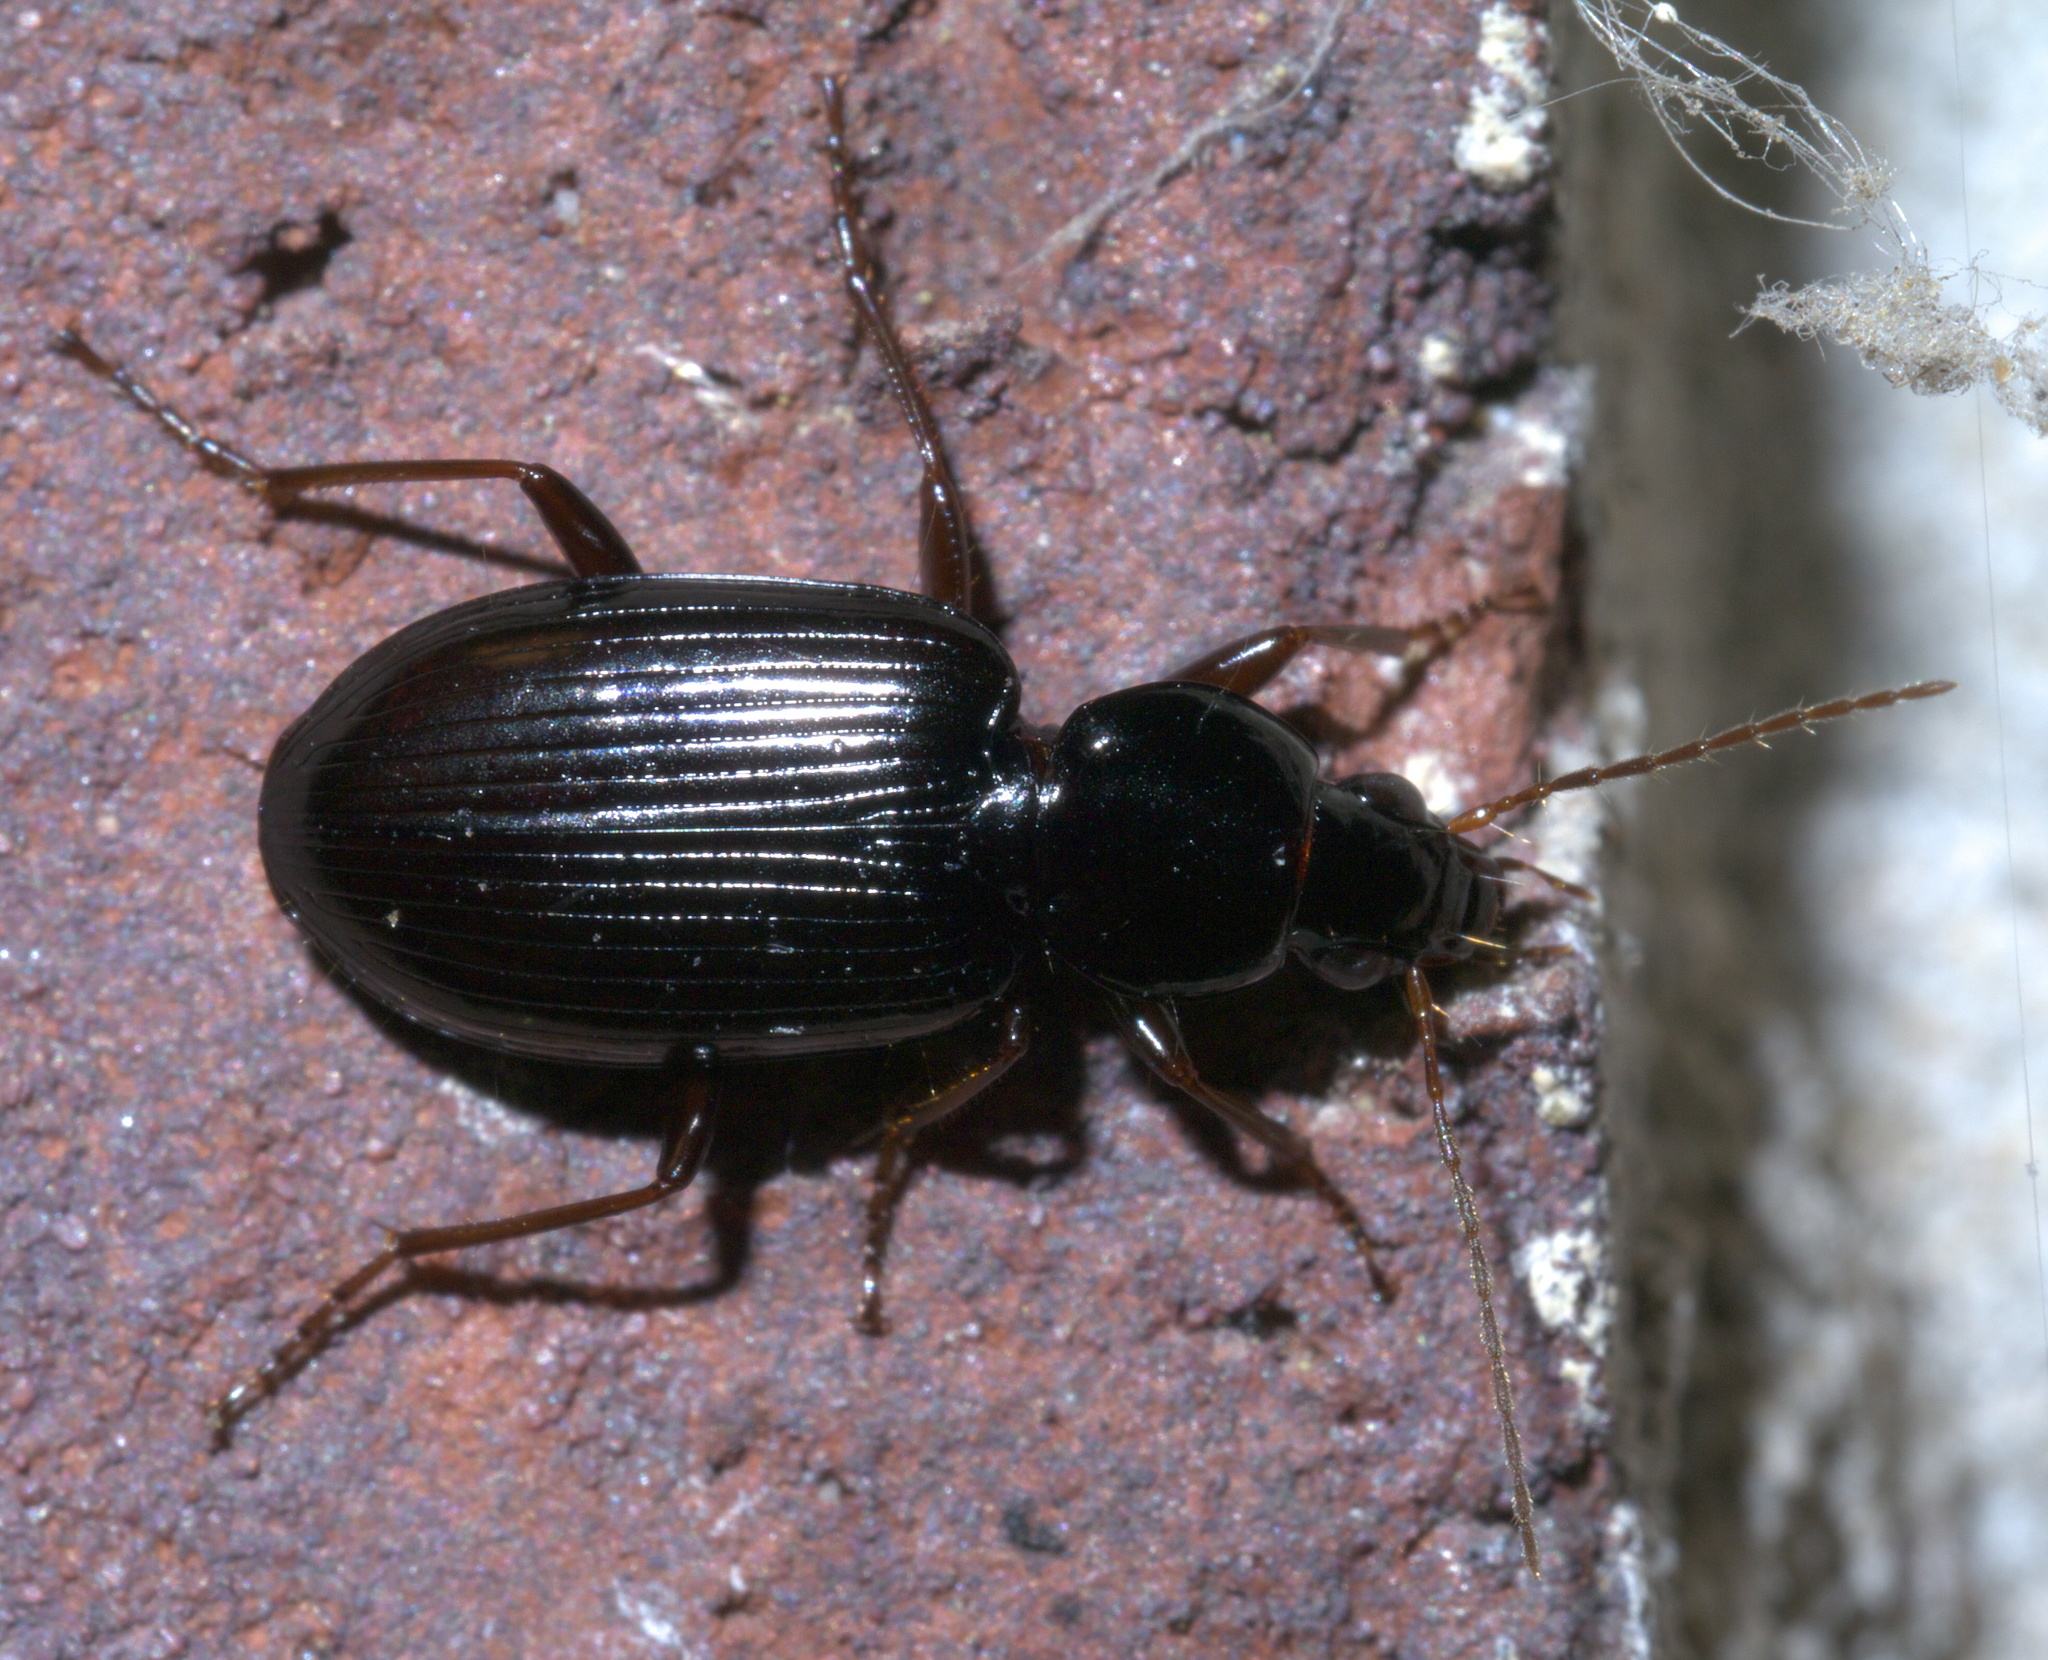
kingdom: Animalia
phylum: Arthropoda
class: Insecta
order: Coleoptera
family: Carabidae
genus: Agonum
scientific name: Agonum punctiforme
